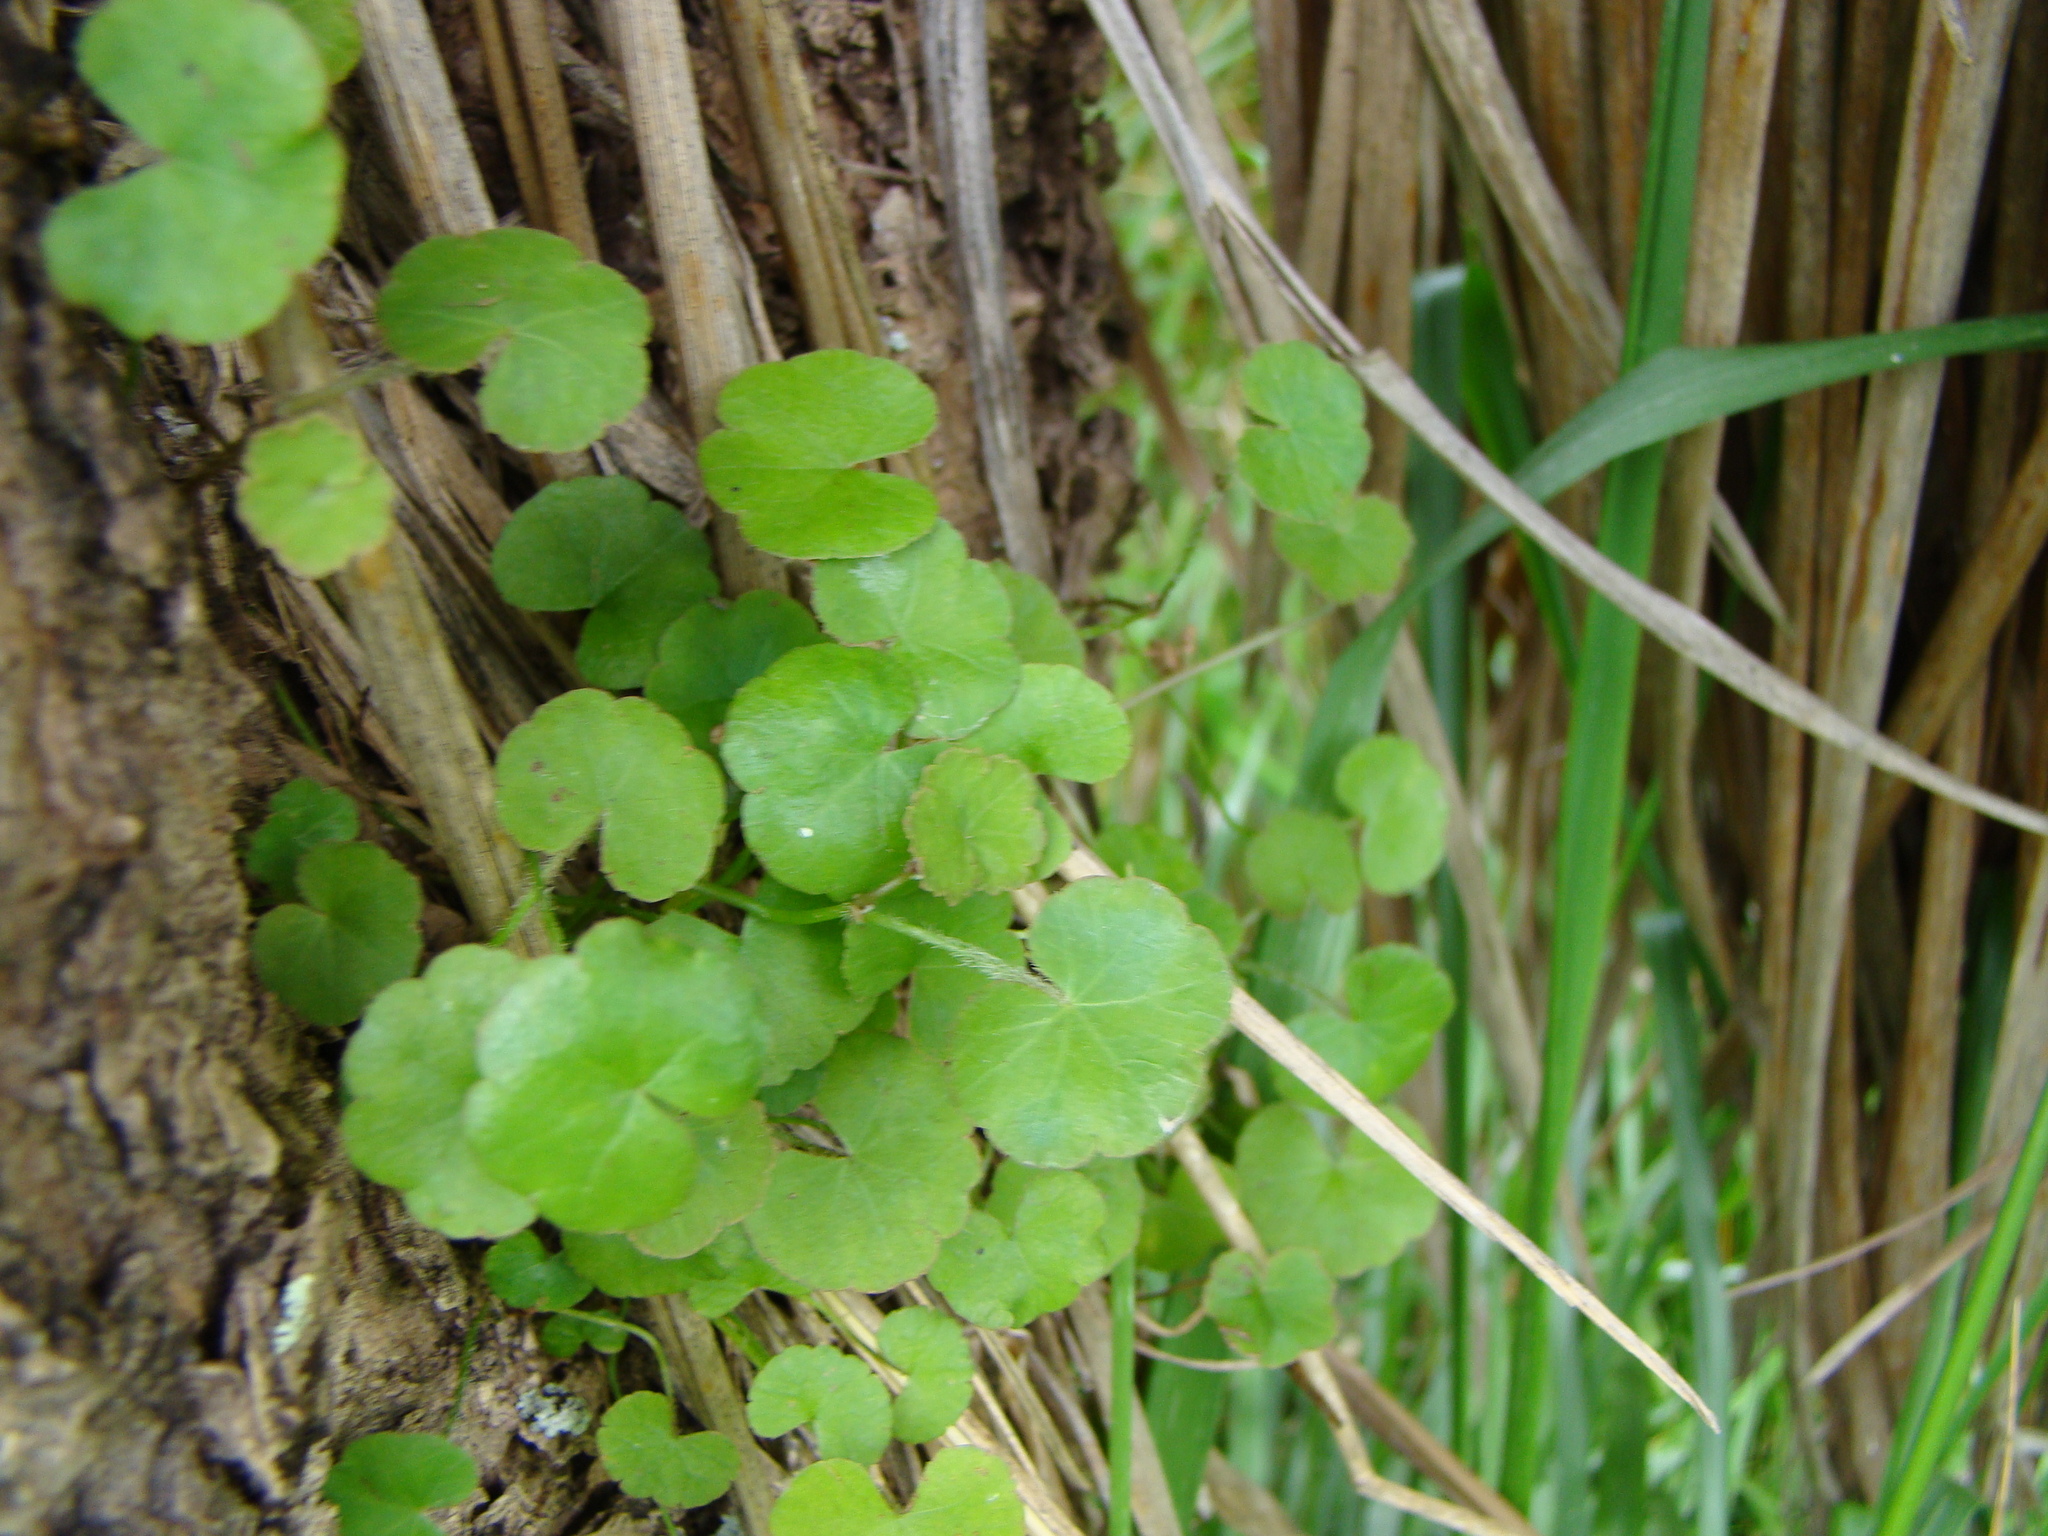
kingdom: Plantae
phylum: Tracheophyta
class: Magnoliopsida
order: Apiales
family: Araliaceae
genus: Hydrocotyle
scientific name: Hydrocotyle novae-zeelandiae
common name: New zealand pennywort
